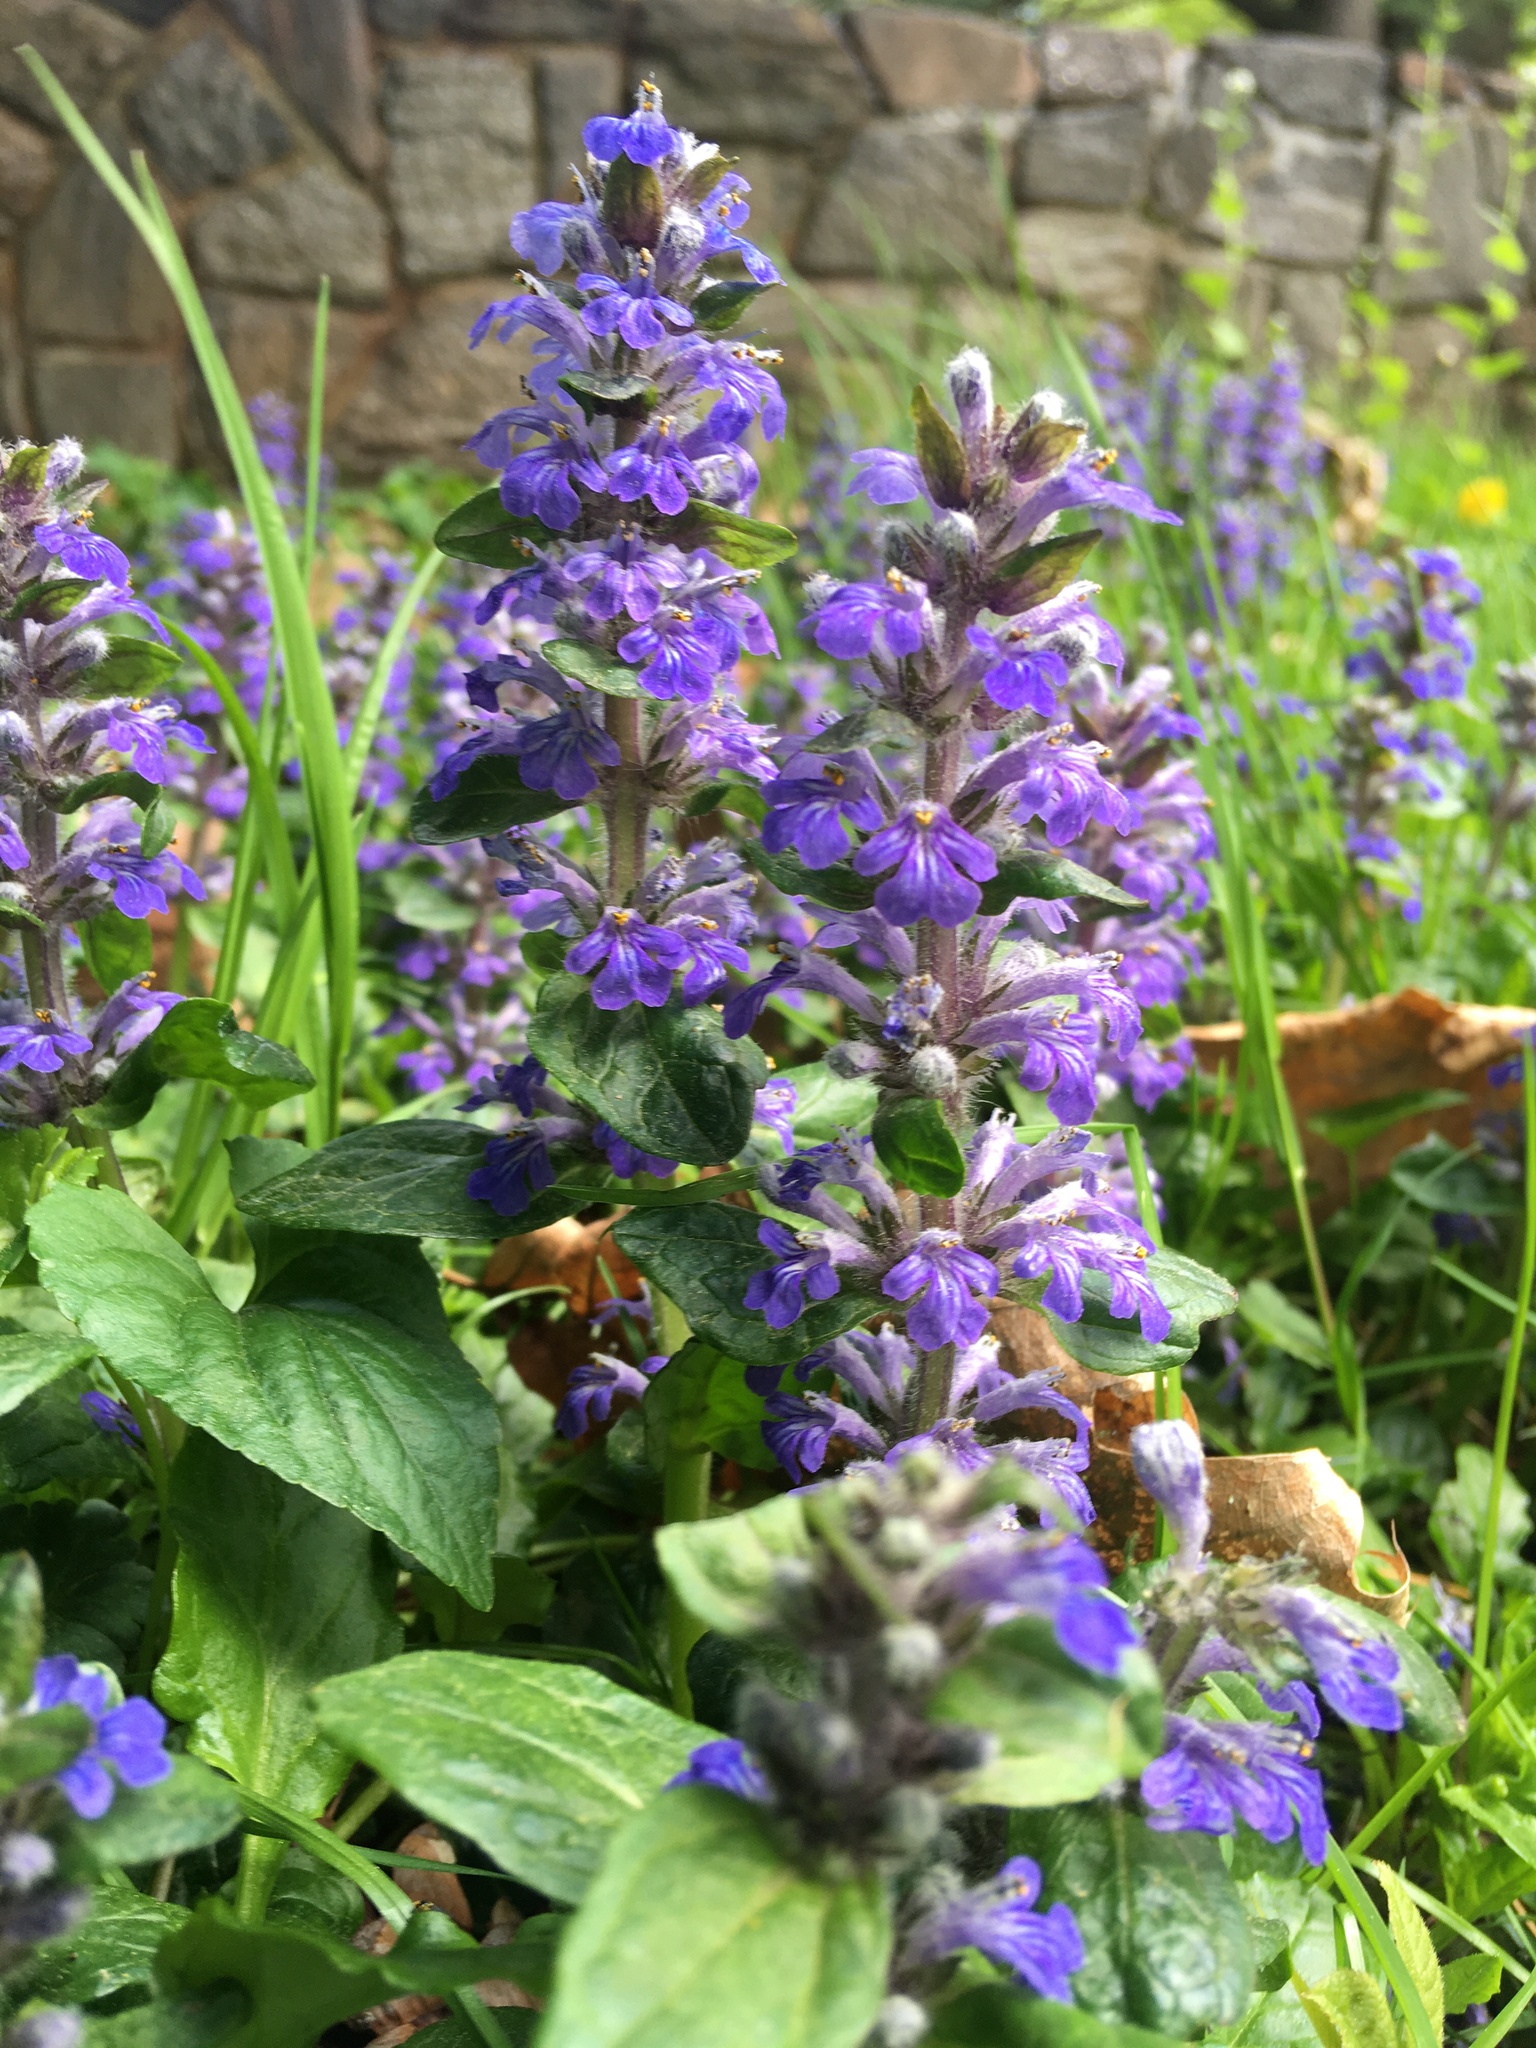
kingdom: Plantae
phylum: Tracheophyta
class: Magnoliopsida
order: Lamiales
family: Lamiaceae
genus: Ajuga
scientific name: Ajuga reptans
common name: Bugle
